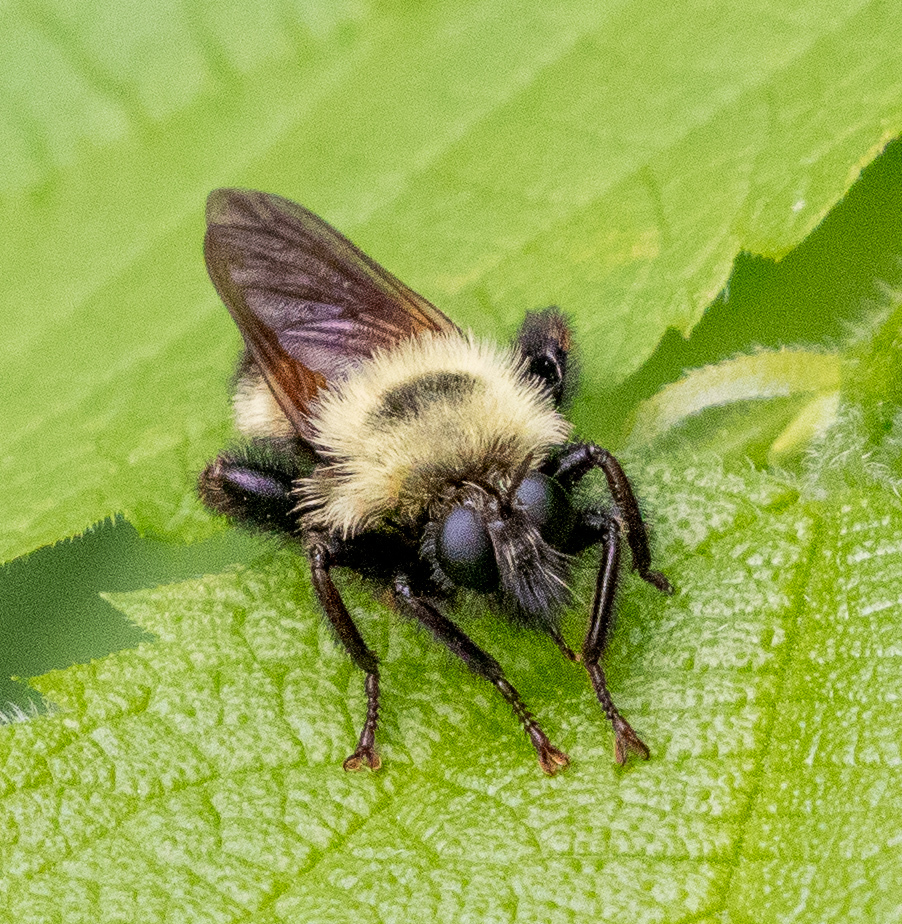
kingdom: Animalia
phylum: Arthropoda
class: Insecta
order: Diptera
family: Asilidae
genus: Laphria
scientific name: Laphria thoracica
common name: Bumble bee mimic robber fly
